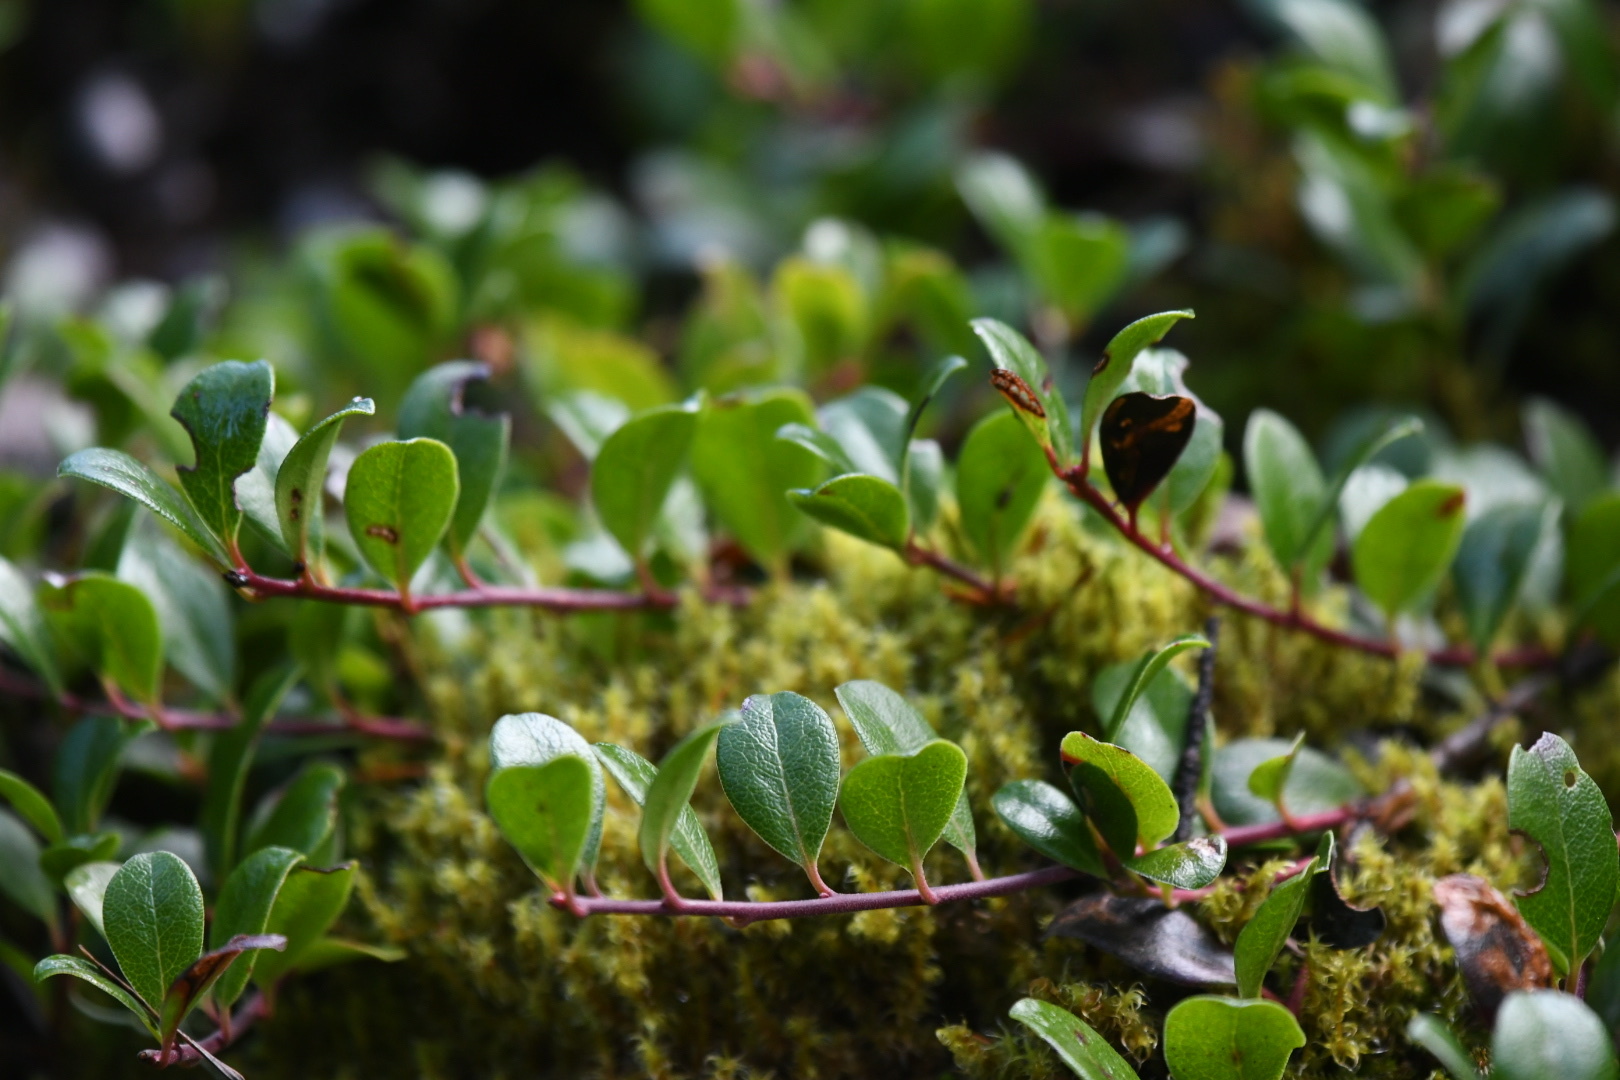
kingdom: Plantae
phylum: Tracheophyta
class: Magnoliopsida
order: Ericales
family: Ericaceae
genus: Arctostaphylos
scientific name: Arctostaphylos uva-ursi
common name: Bearberry
